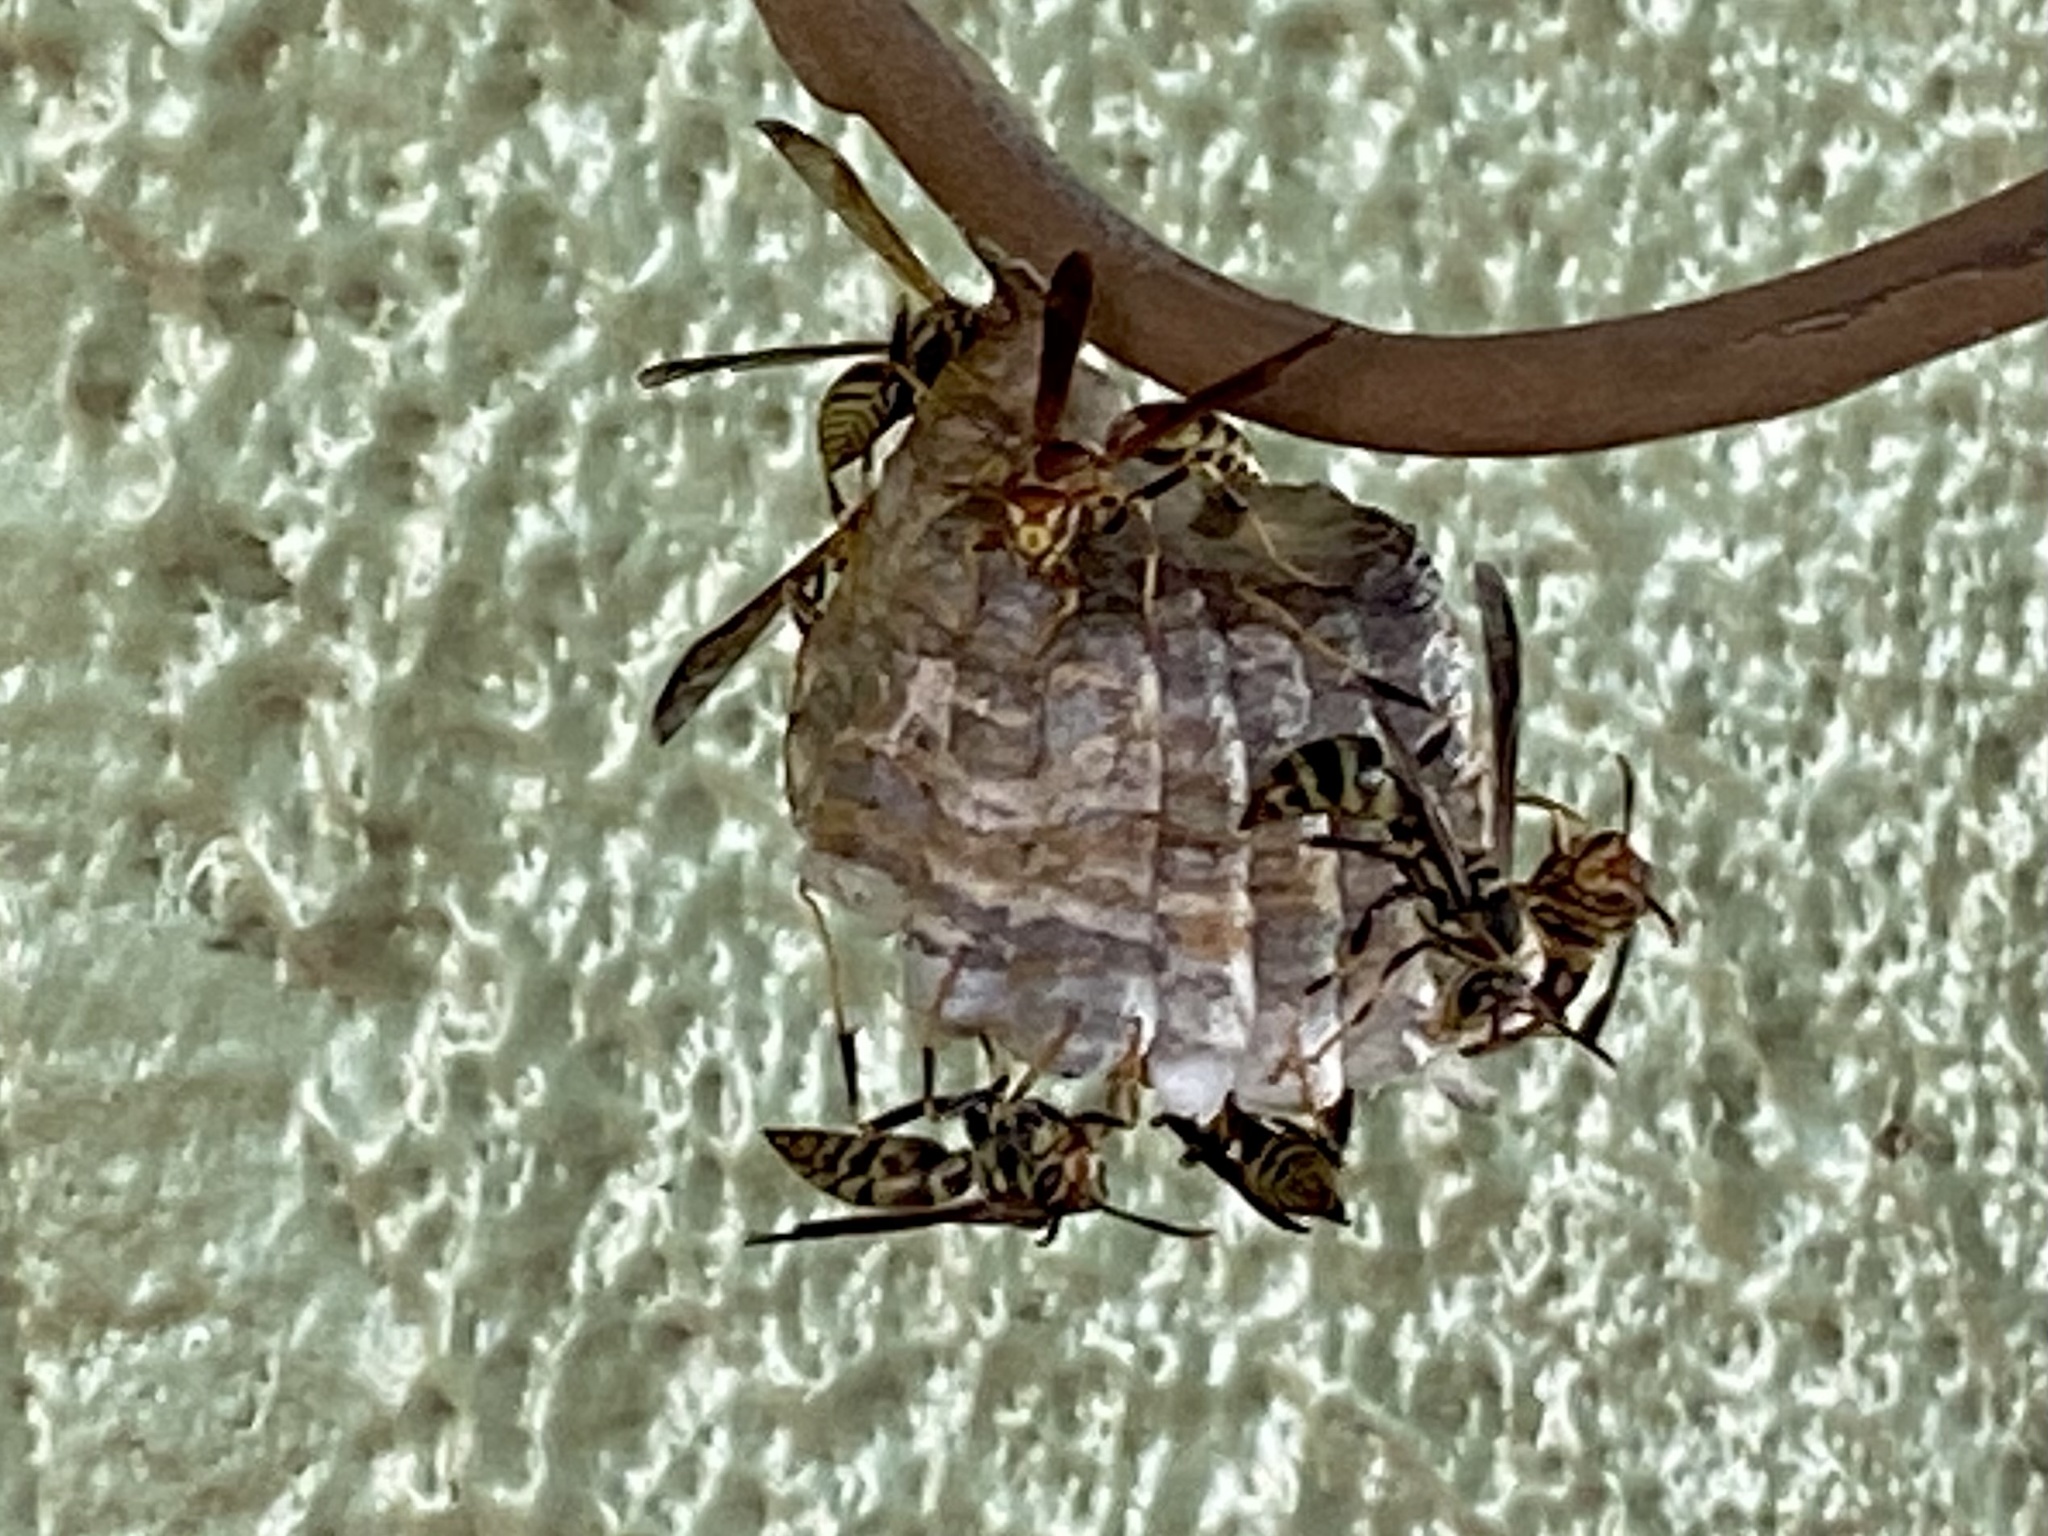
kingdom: Animalia
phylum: Arthropoda
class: Insecta
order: Hymenoptera
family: Eumenidae
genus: Polistes
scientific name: Polistes exclamans
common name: Paper wasp
